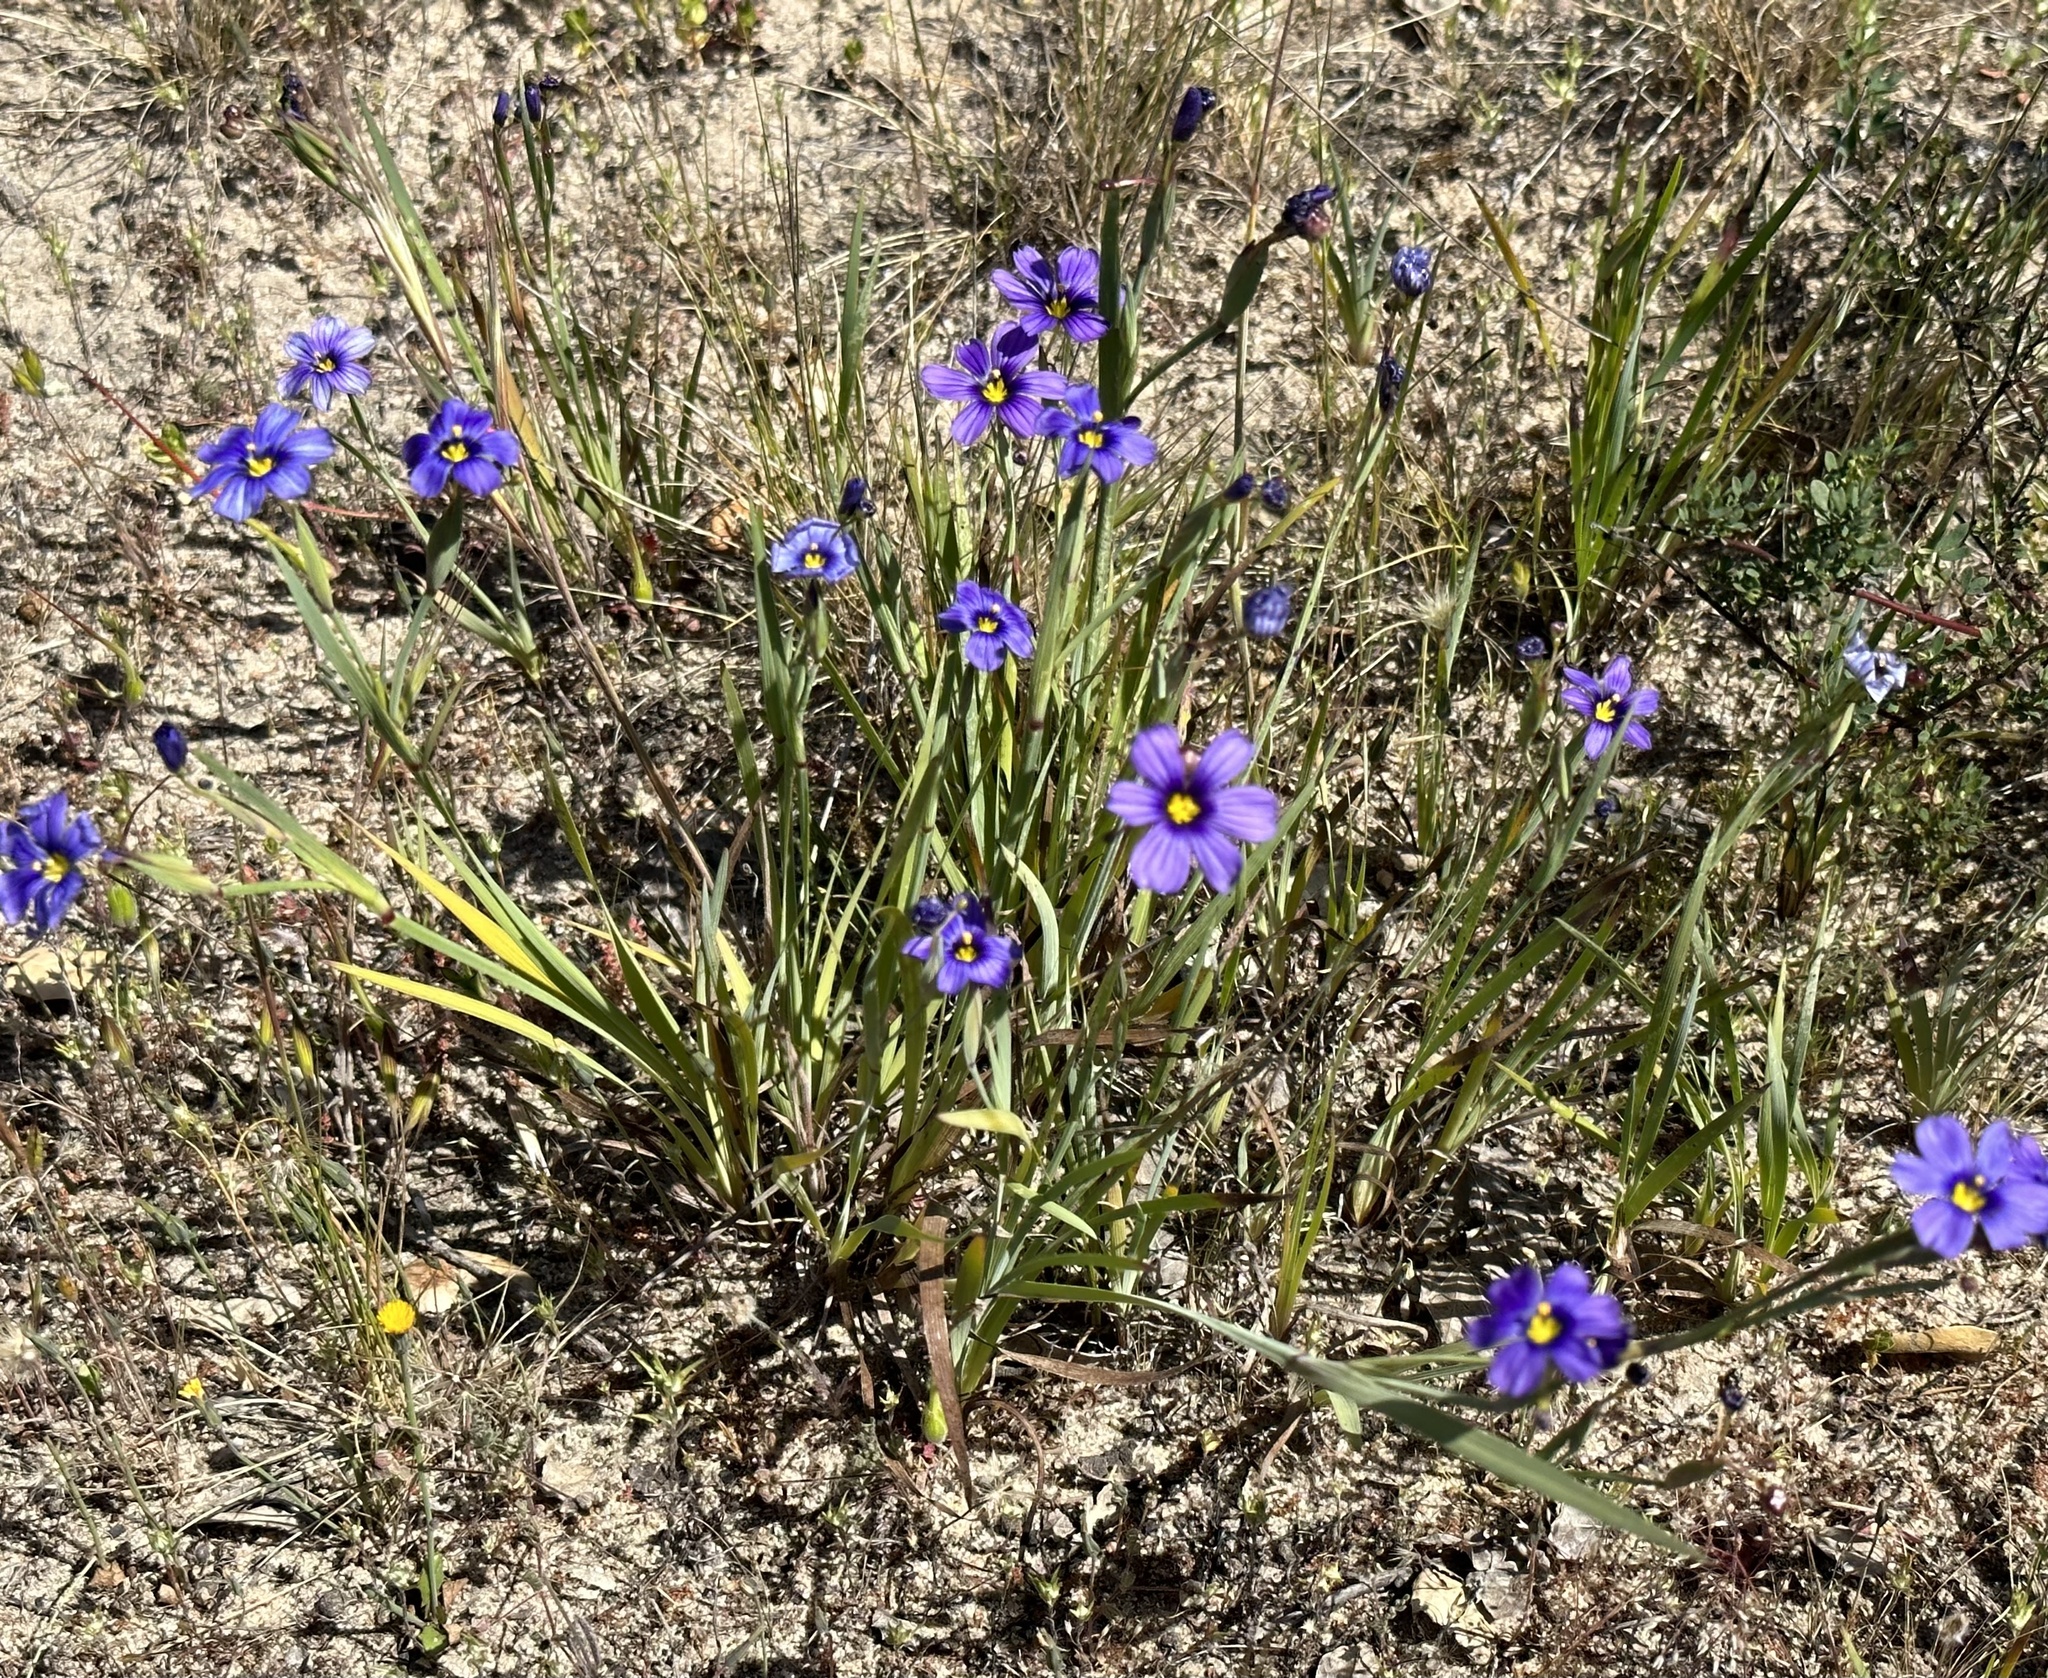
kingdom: Plantae
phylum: Tracheophyta
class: Liliopsida
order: Asparagales
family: Iridaceae
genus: Sisyrinchium
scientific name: Sisyrinchium bellum
